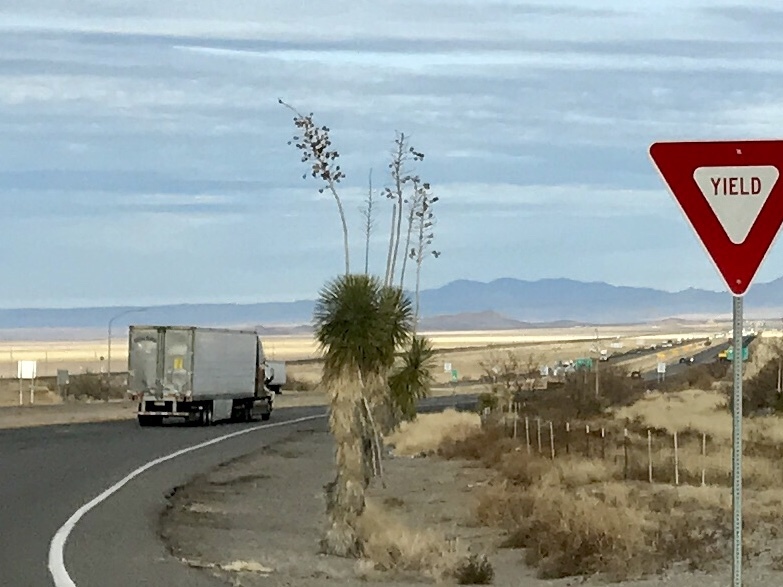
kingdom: Plantae
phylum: Tracheophyta
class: Liliopsida
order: Asparagales
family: Asparagaceae
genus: Yucca
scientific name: Yucca elata
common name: Palmella
